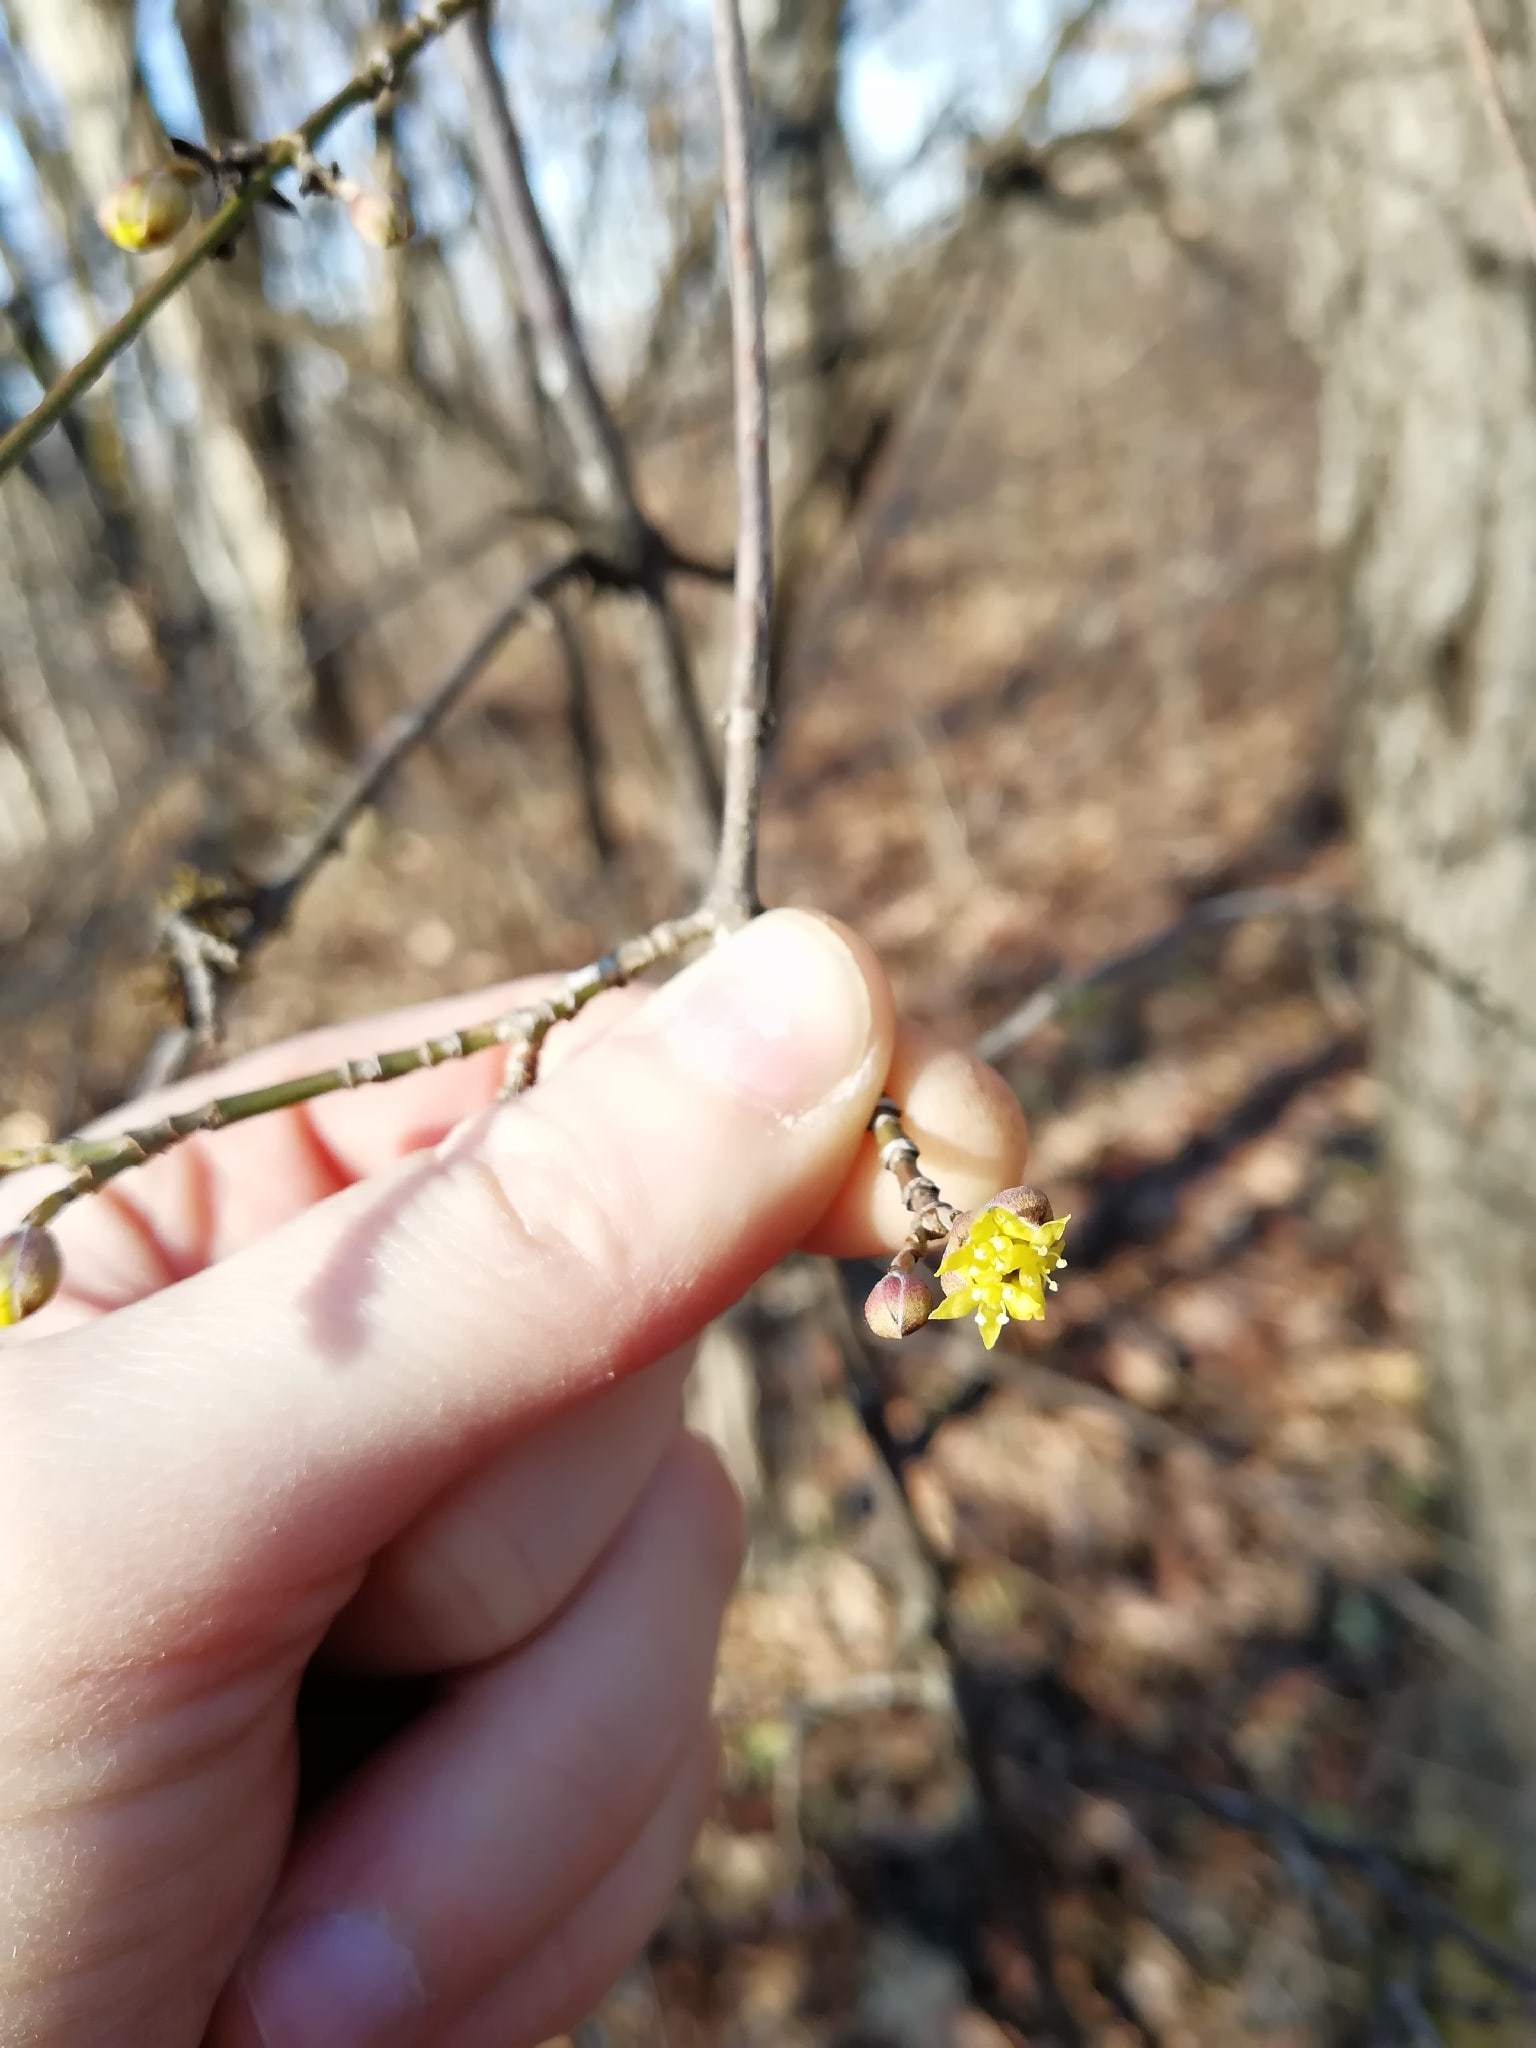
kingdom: Plantae
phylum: Tracheophyta
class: Magnoliopsida
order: Cornales
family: Cornaceae
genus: Cornus
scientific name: Cornus mas
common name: Cornelian-cherry
